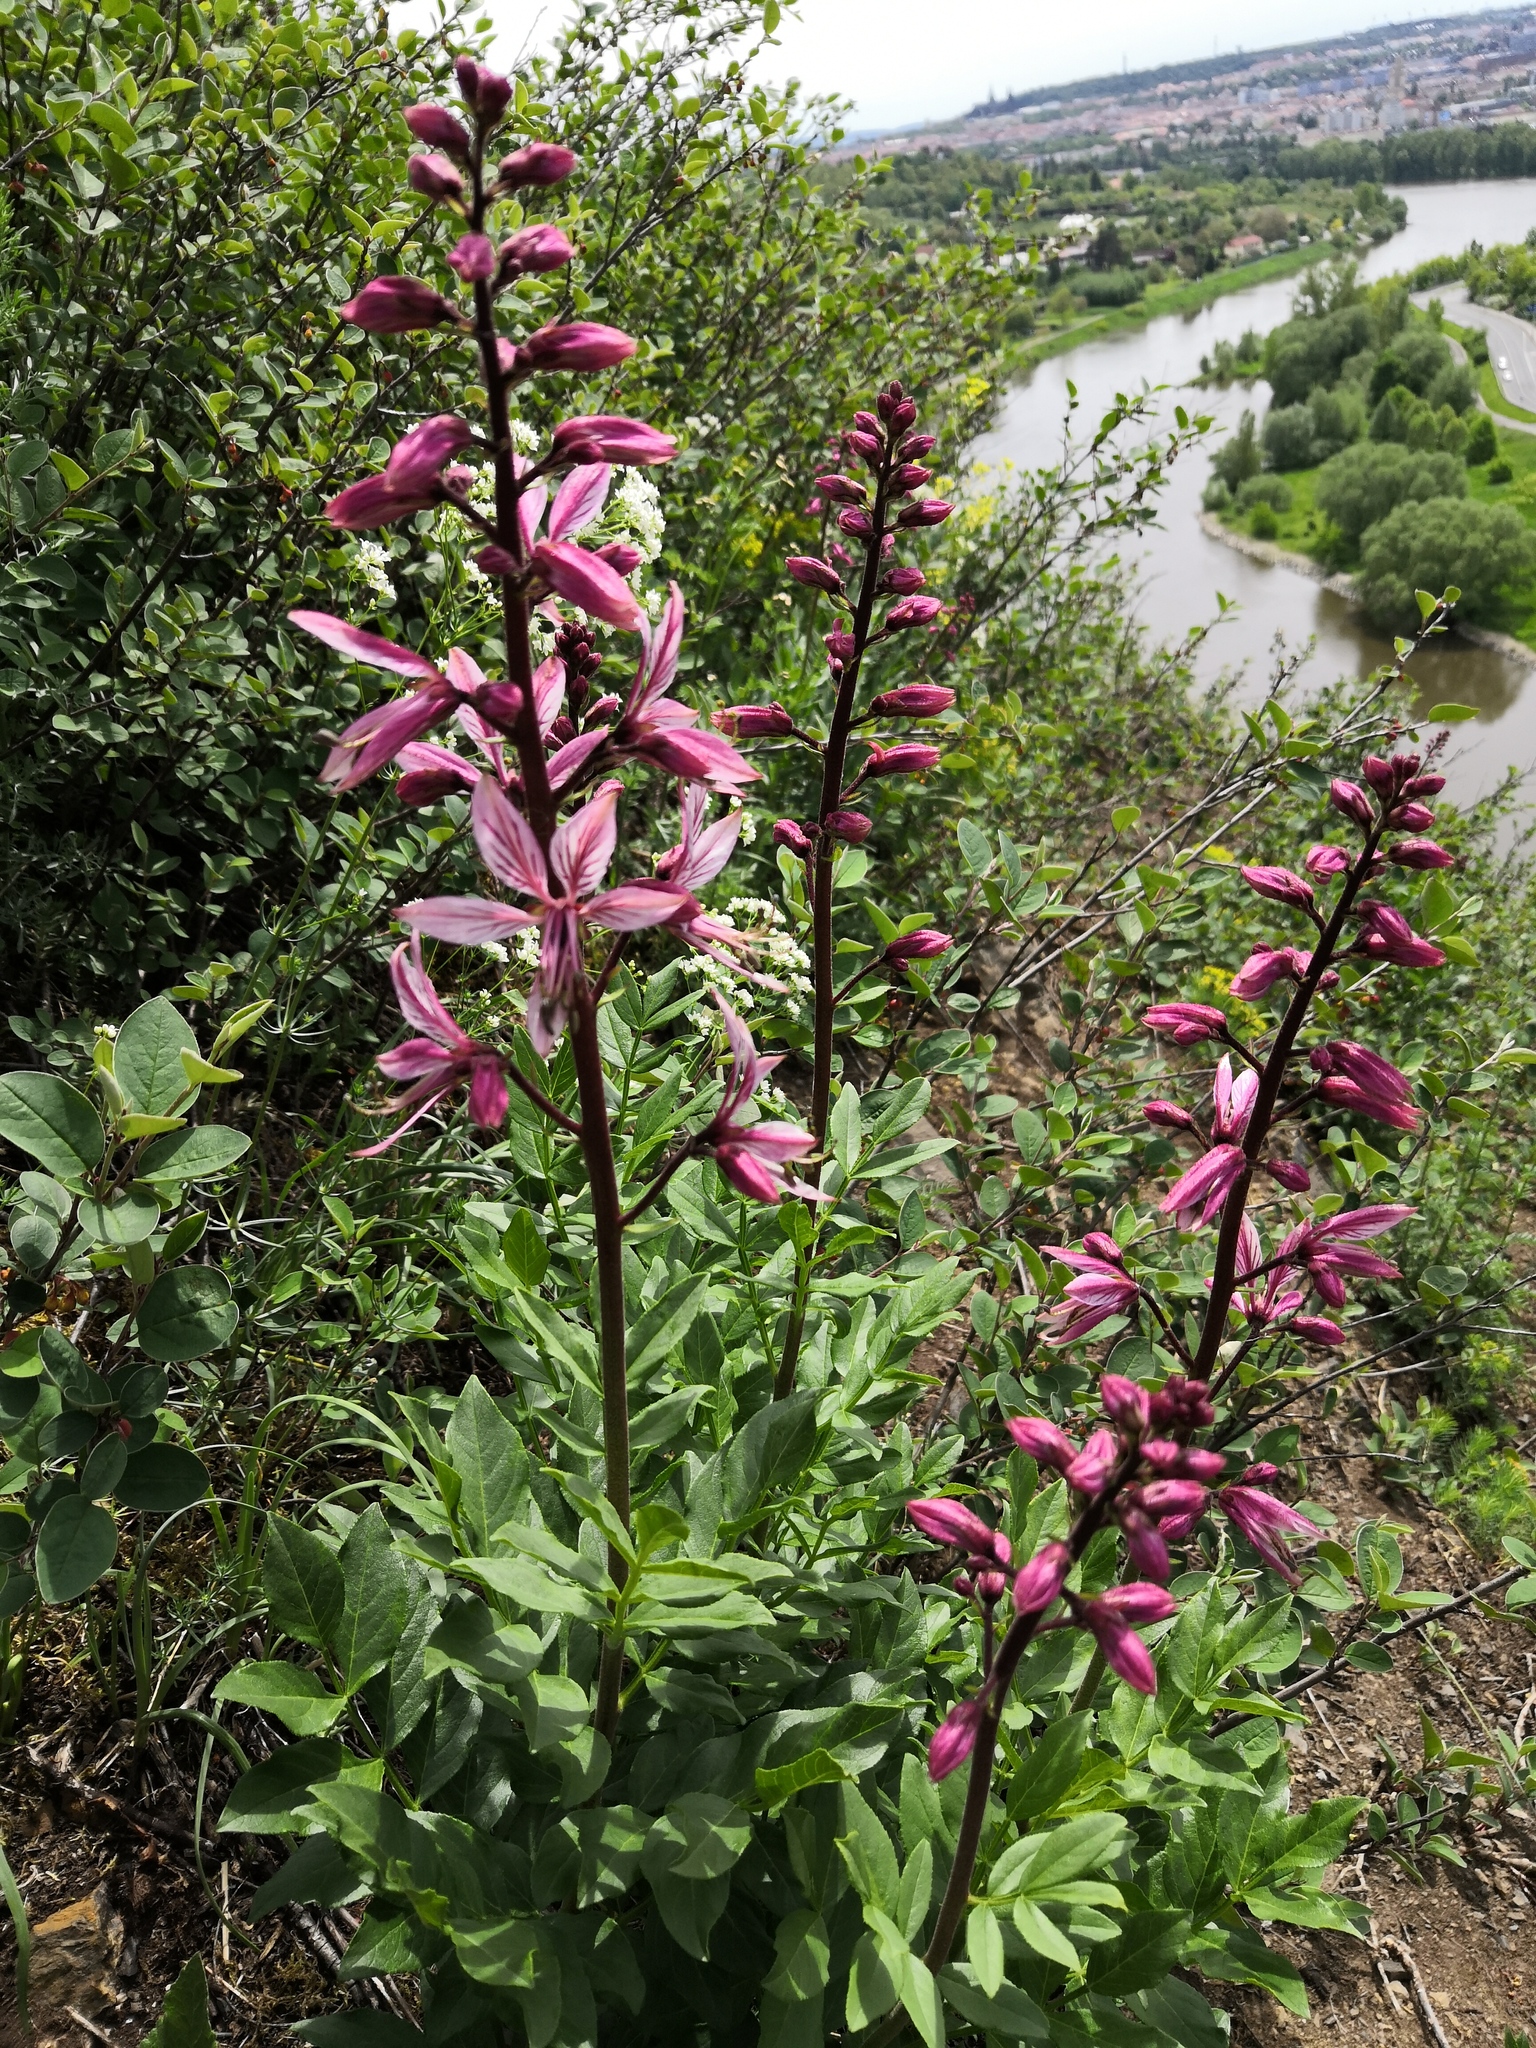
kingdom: Plantae
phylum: Tracheophyta
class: Magnoliopsida
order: Sapindales
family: Rutaceae
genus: Dictamnus
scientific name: Dictamnus albus
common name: Gasplant
